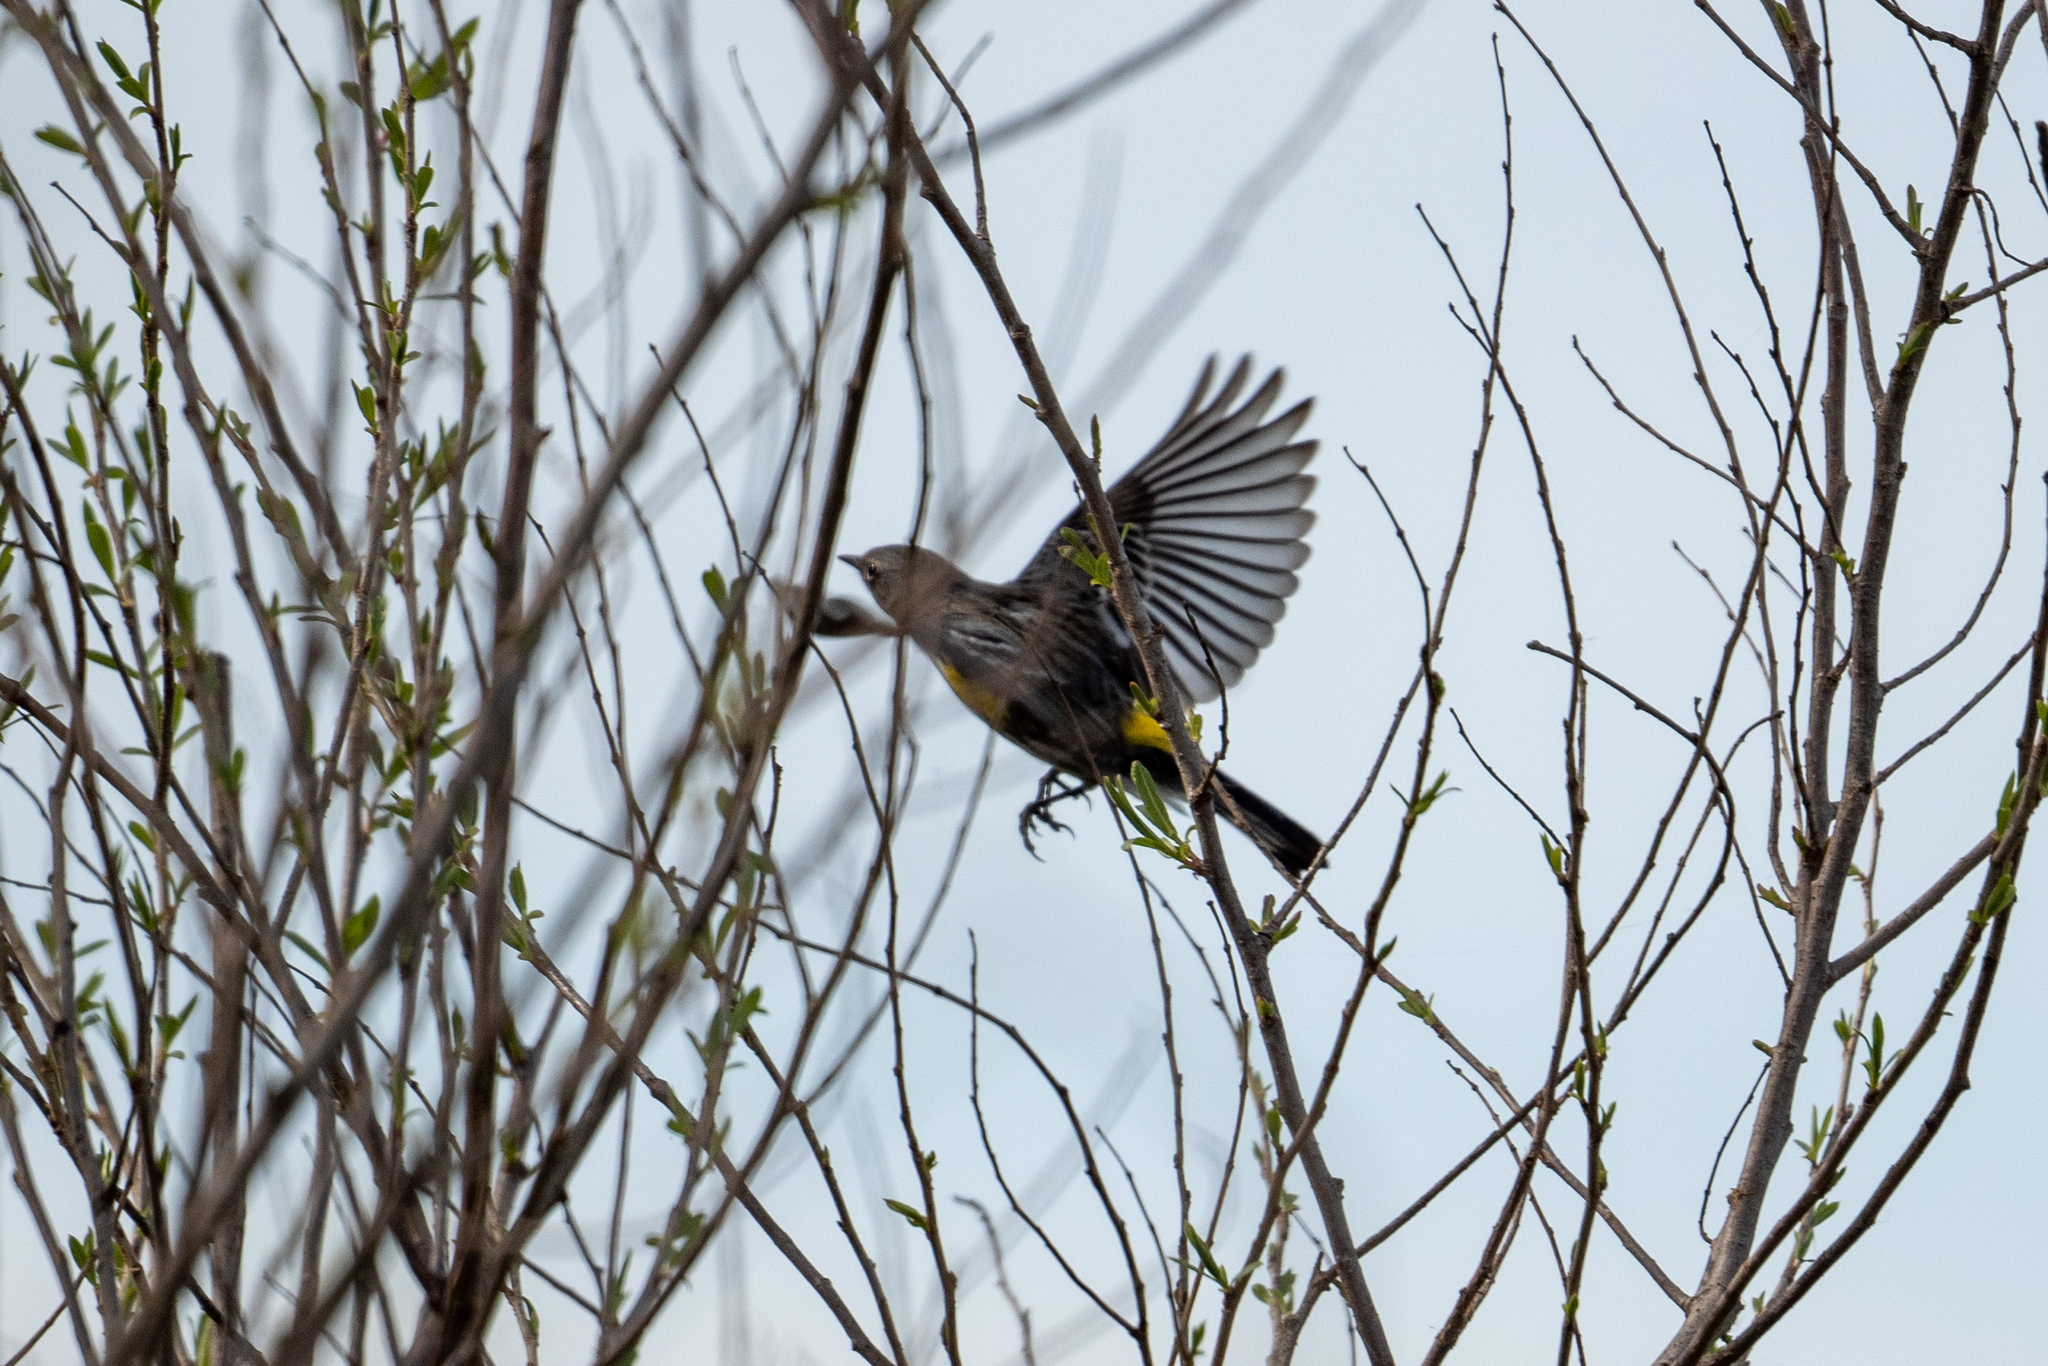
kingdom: Animalia
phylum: Chordata
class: Aves
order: Passeriformes
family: Parulidae
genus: Setophaga
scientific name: Setophaga coronata
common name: Myrtle warbler
